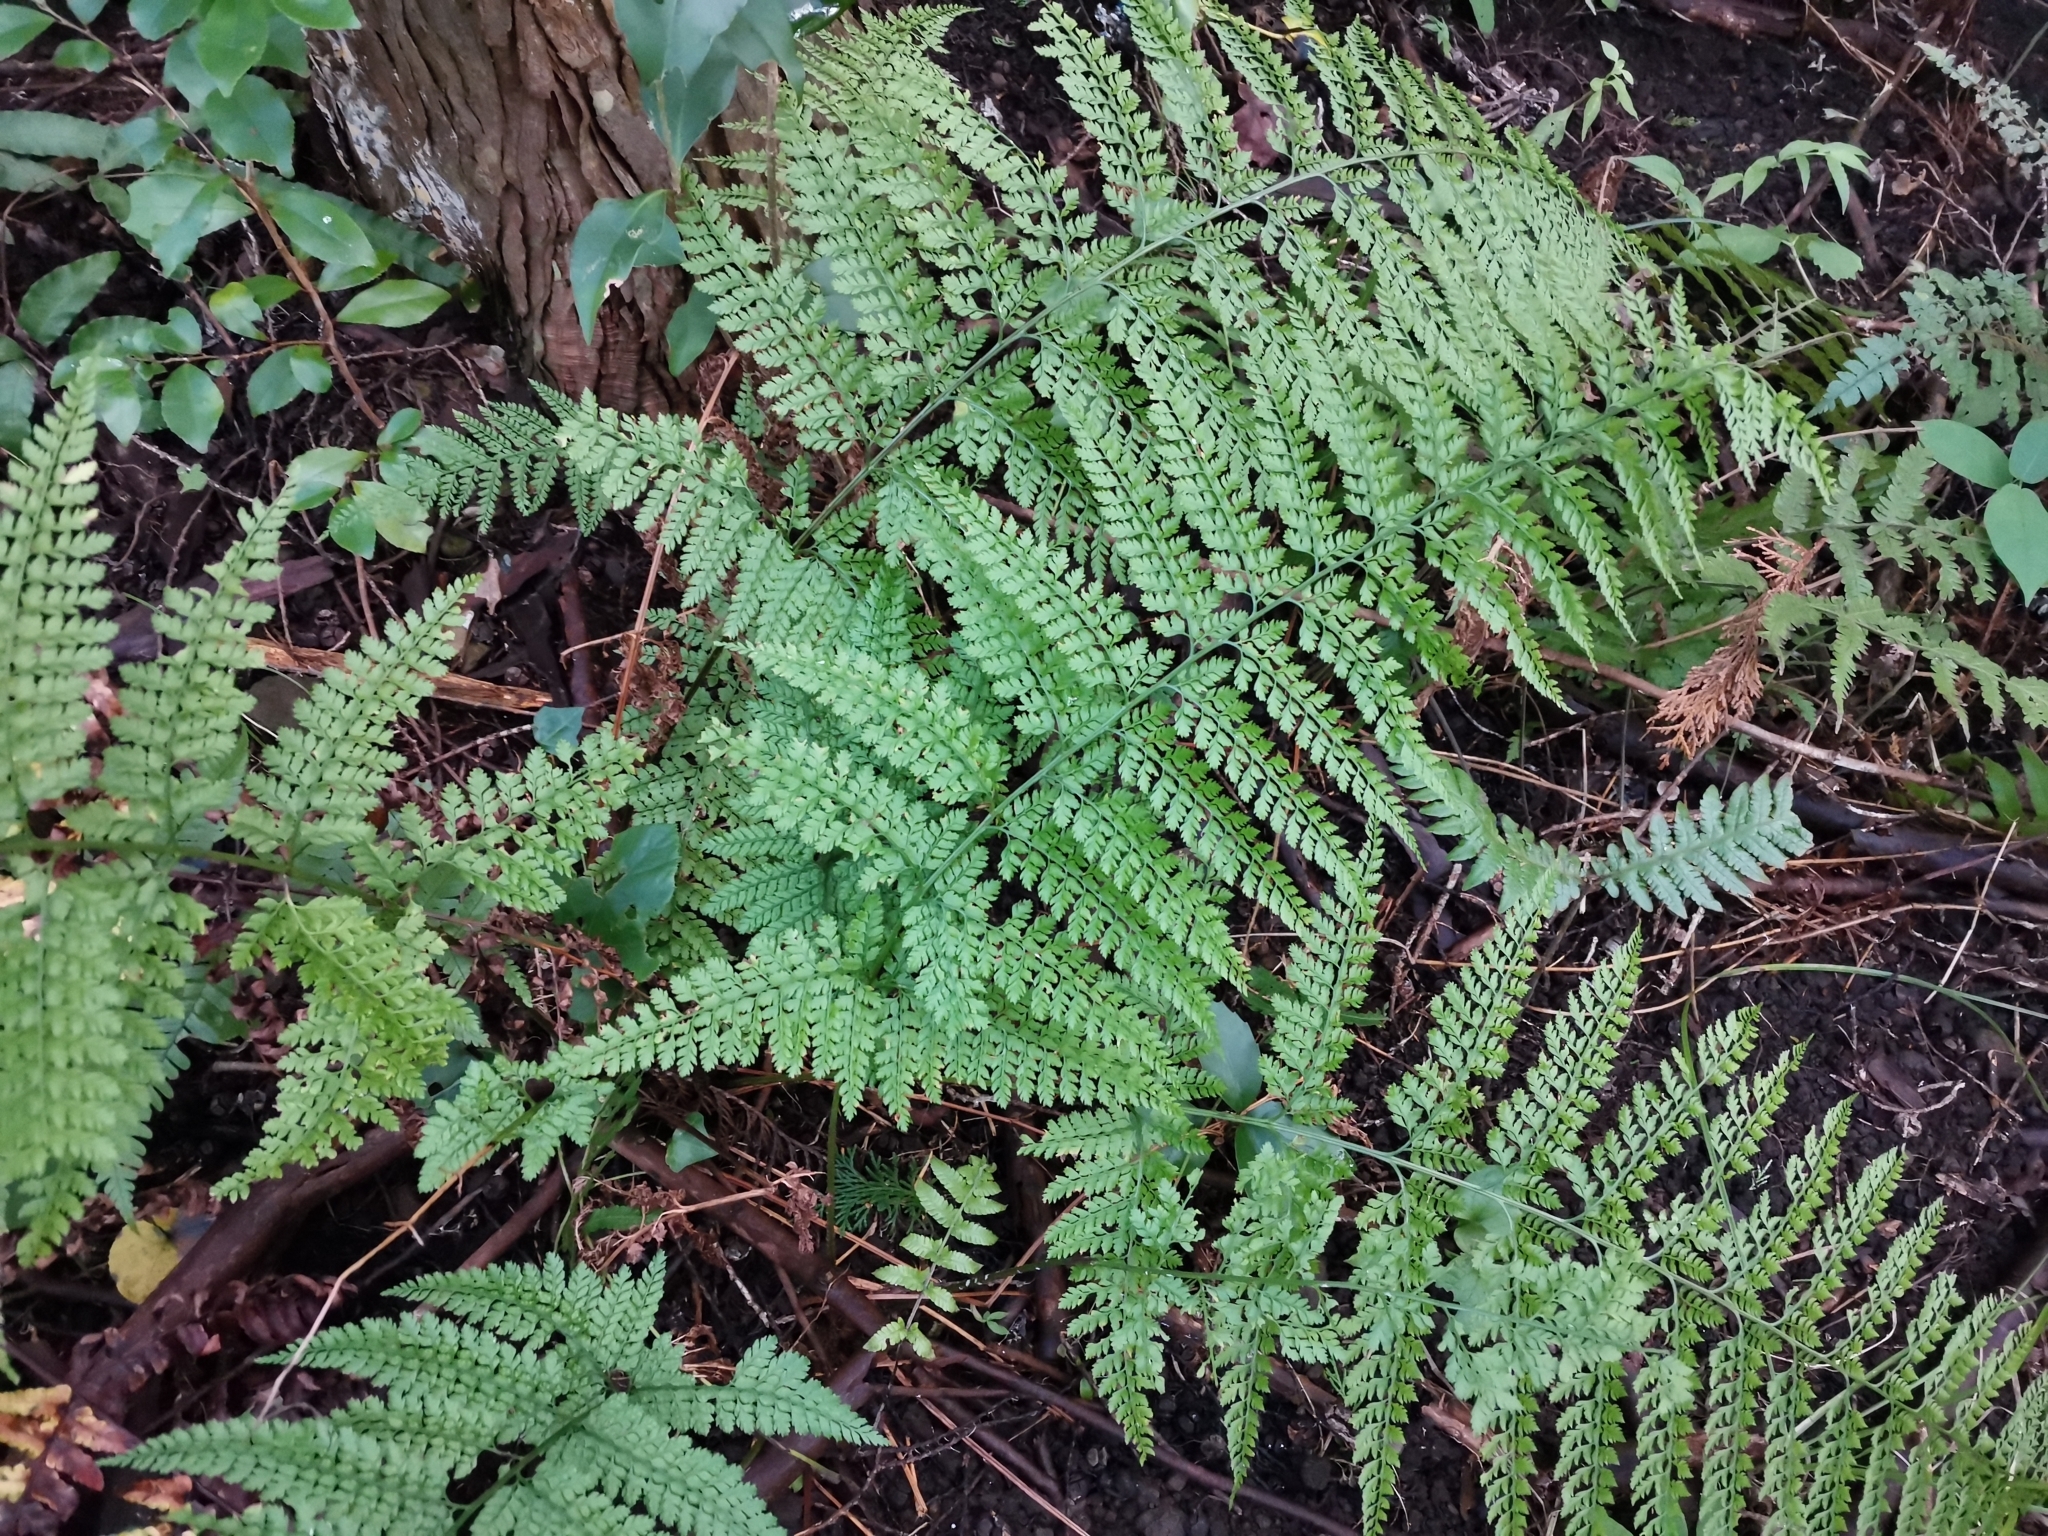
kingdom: Plantae
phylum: Tracheophyta
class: Polypodiopsida
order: Polypodiales
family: Dryopteridaceae
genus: Arachniodes
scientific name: Arachniodes standishii
